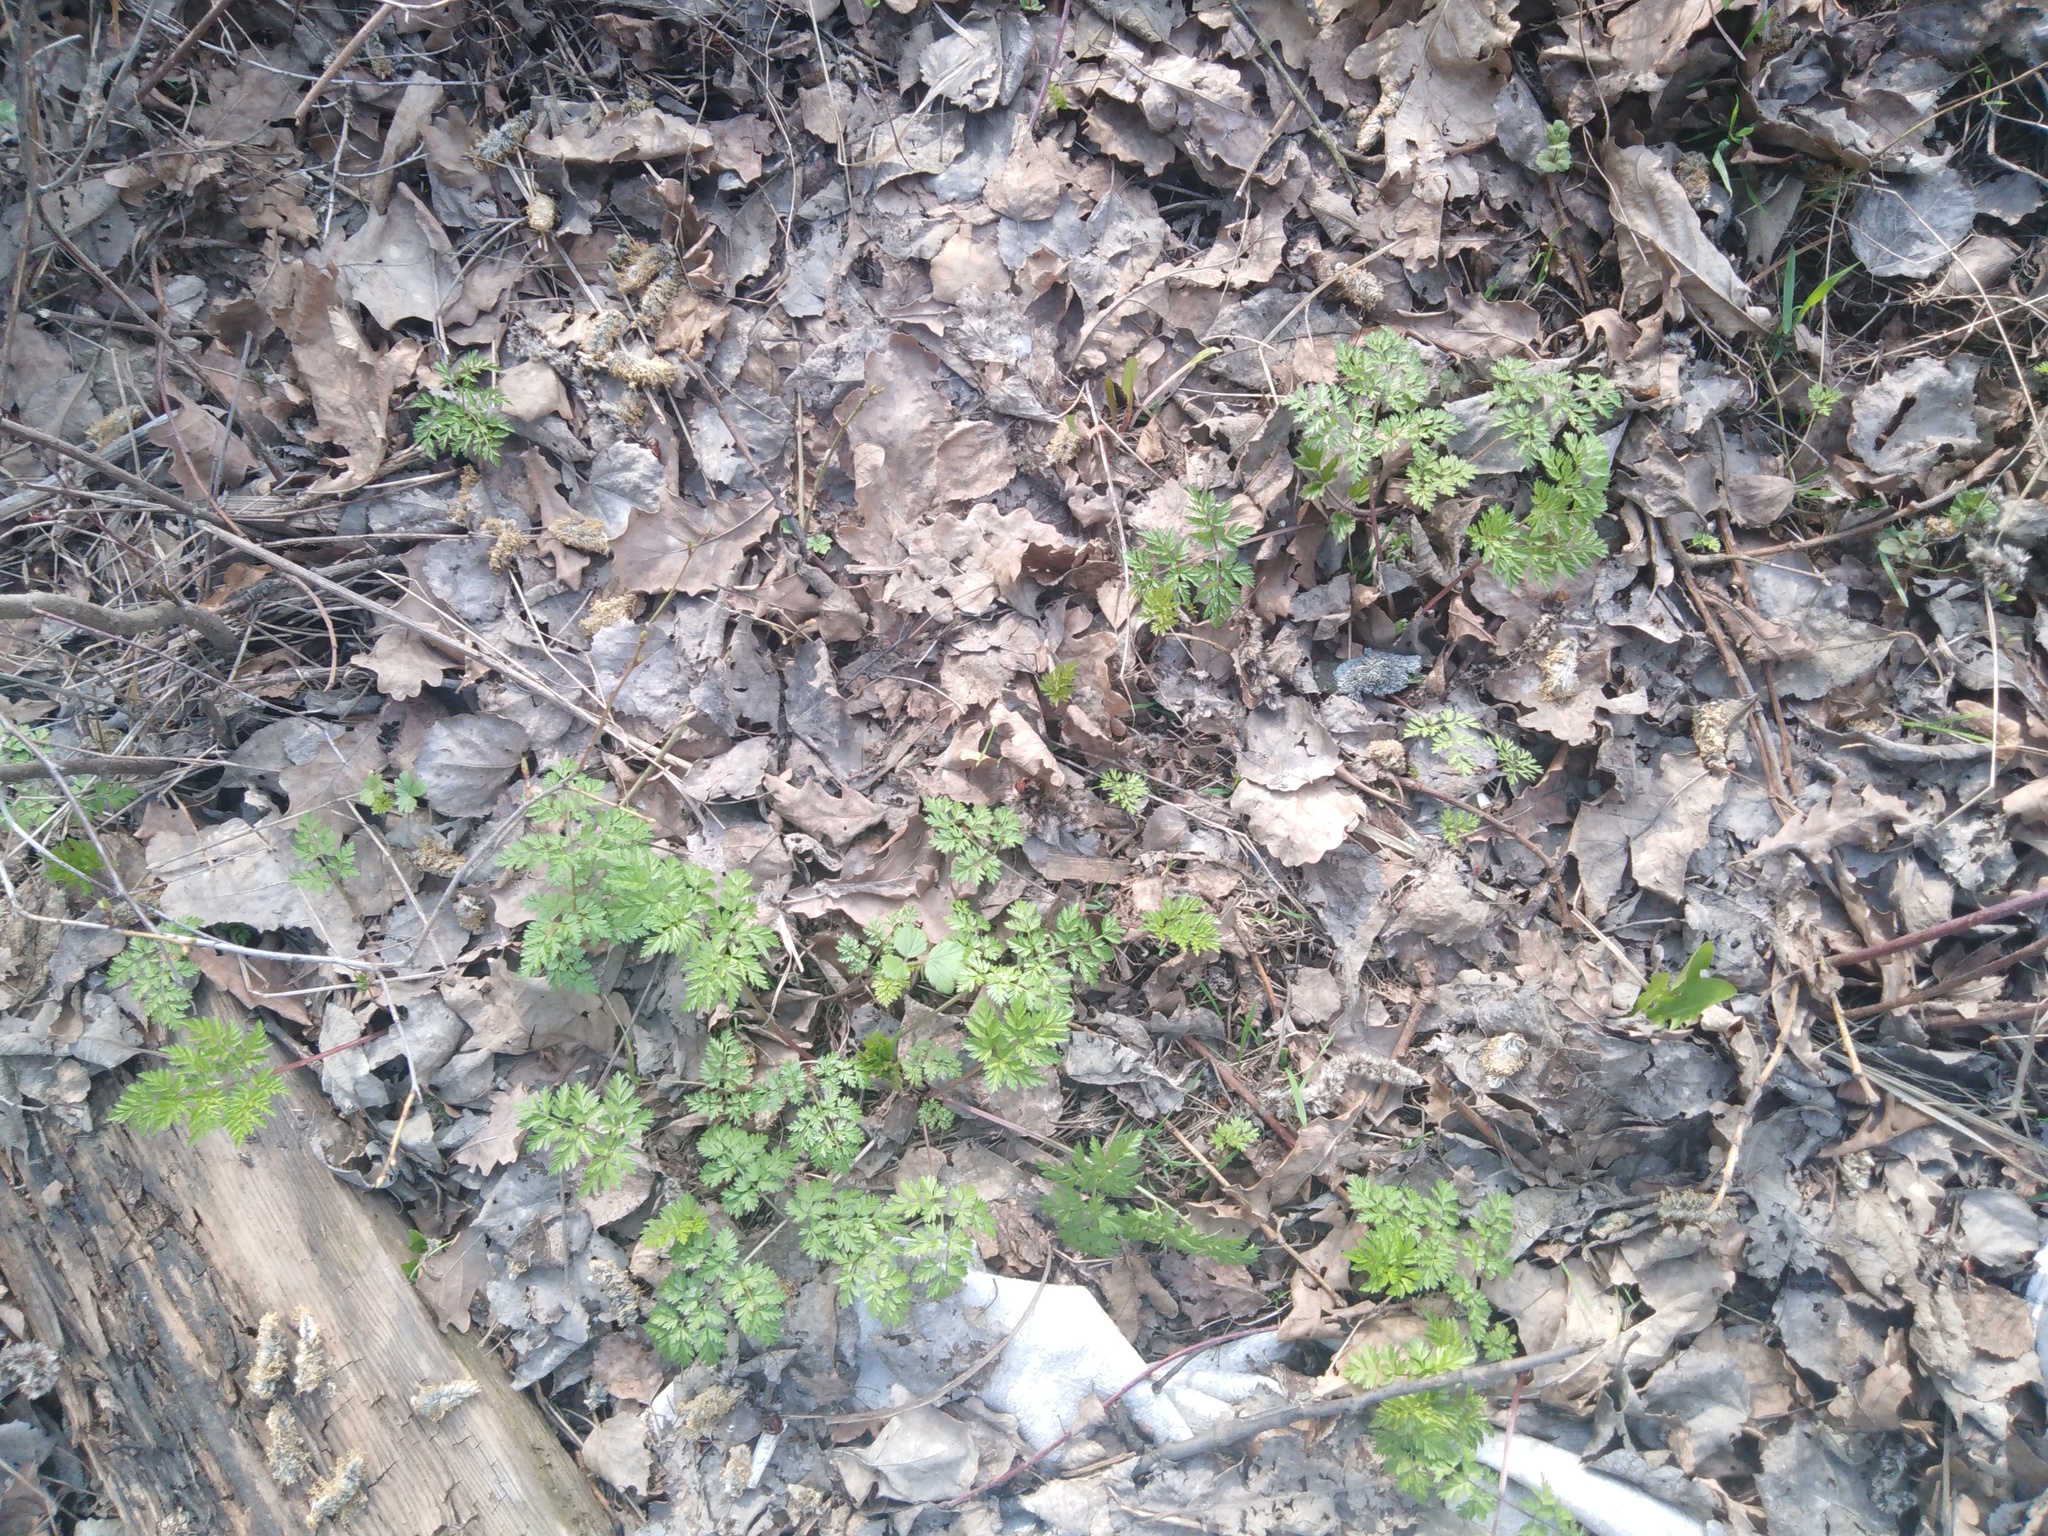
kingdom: Plantae
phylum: Tracheophyta
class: Magnoliopsida
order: Apiales
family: Apiaceae
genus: Anthriscus
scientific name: Anthriscus sylvestris
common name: Cow parsley
